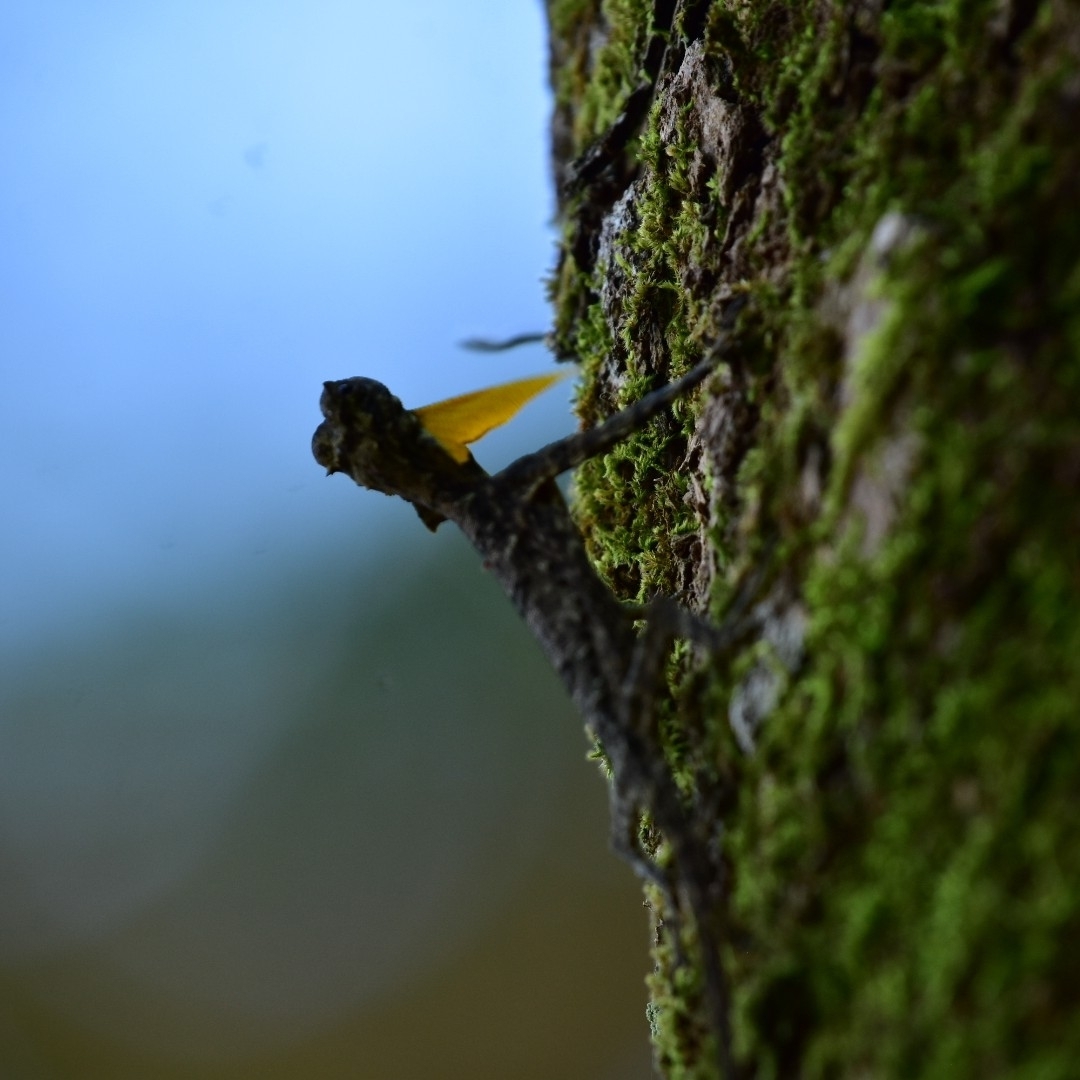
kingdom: Animalia
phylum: Chordata
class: Squamata
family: Agamidae
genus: Draco
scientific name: Draco dussumieri
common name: Southern flying lizard
